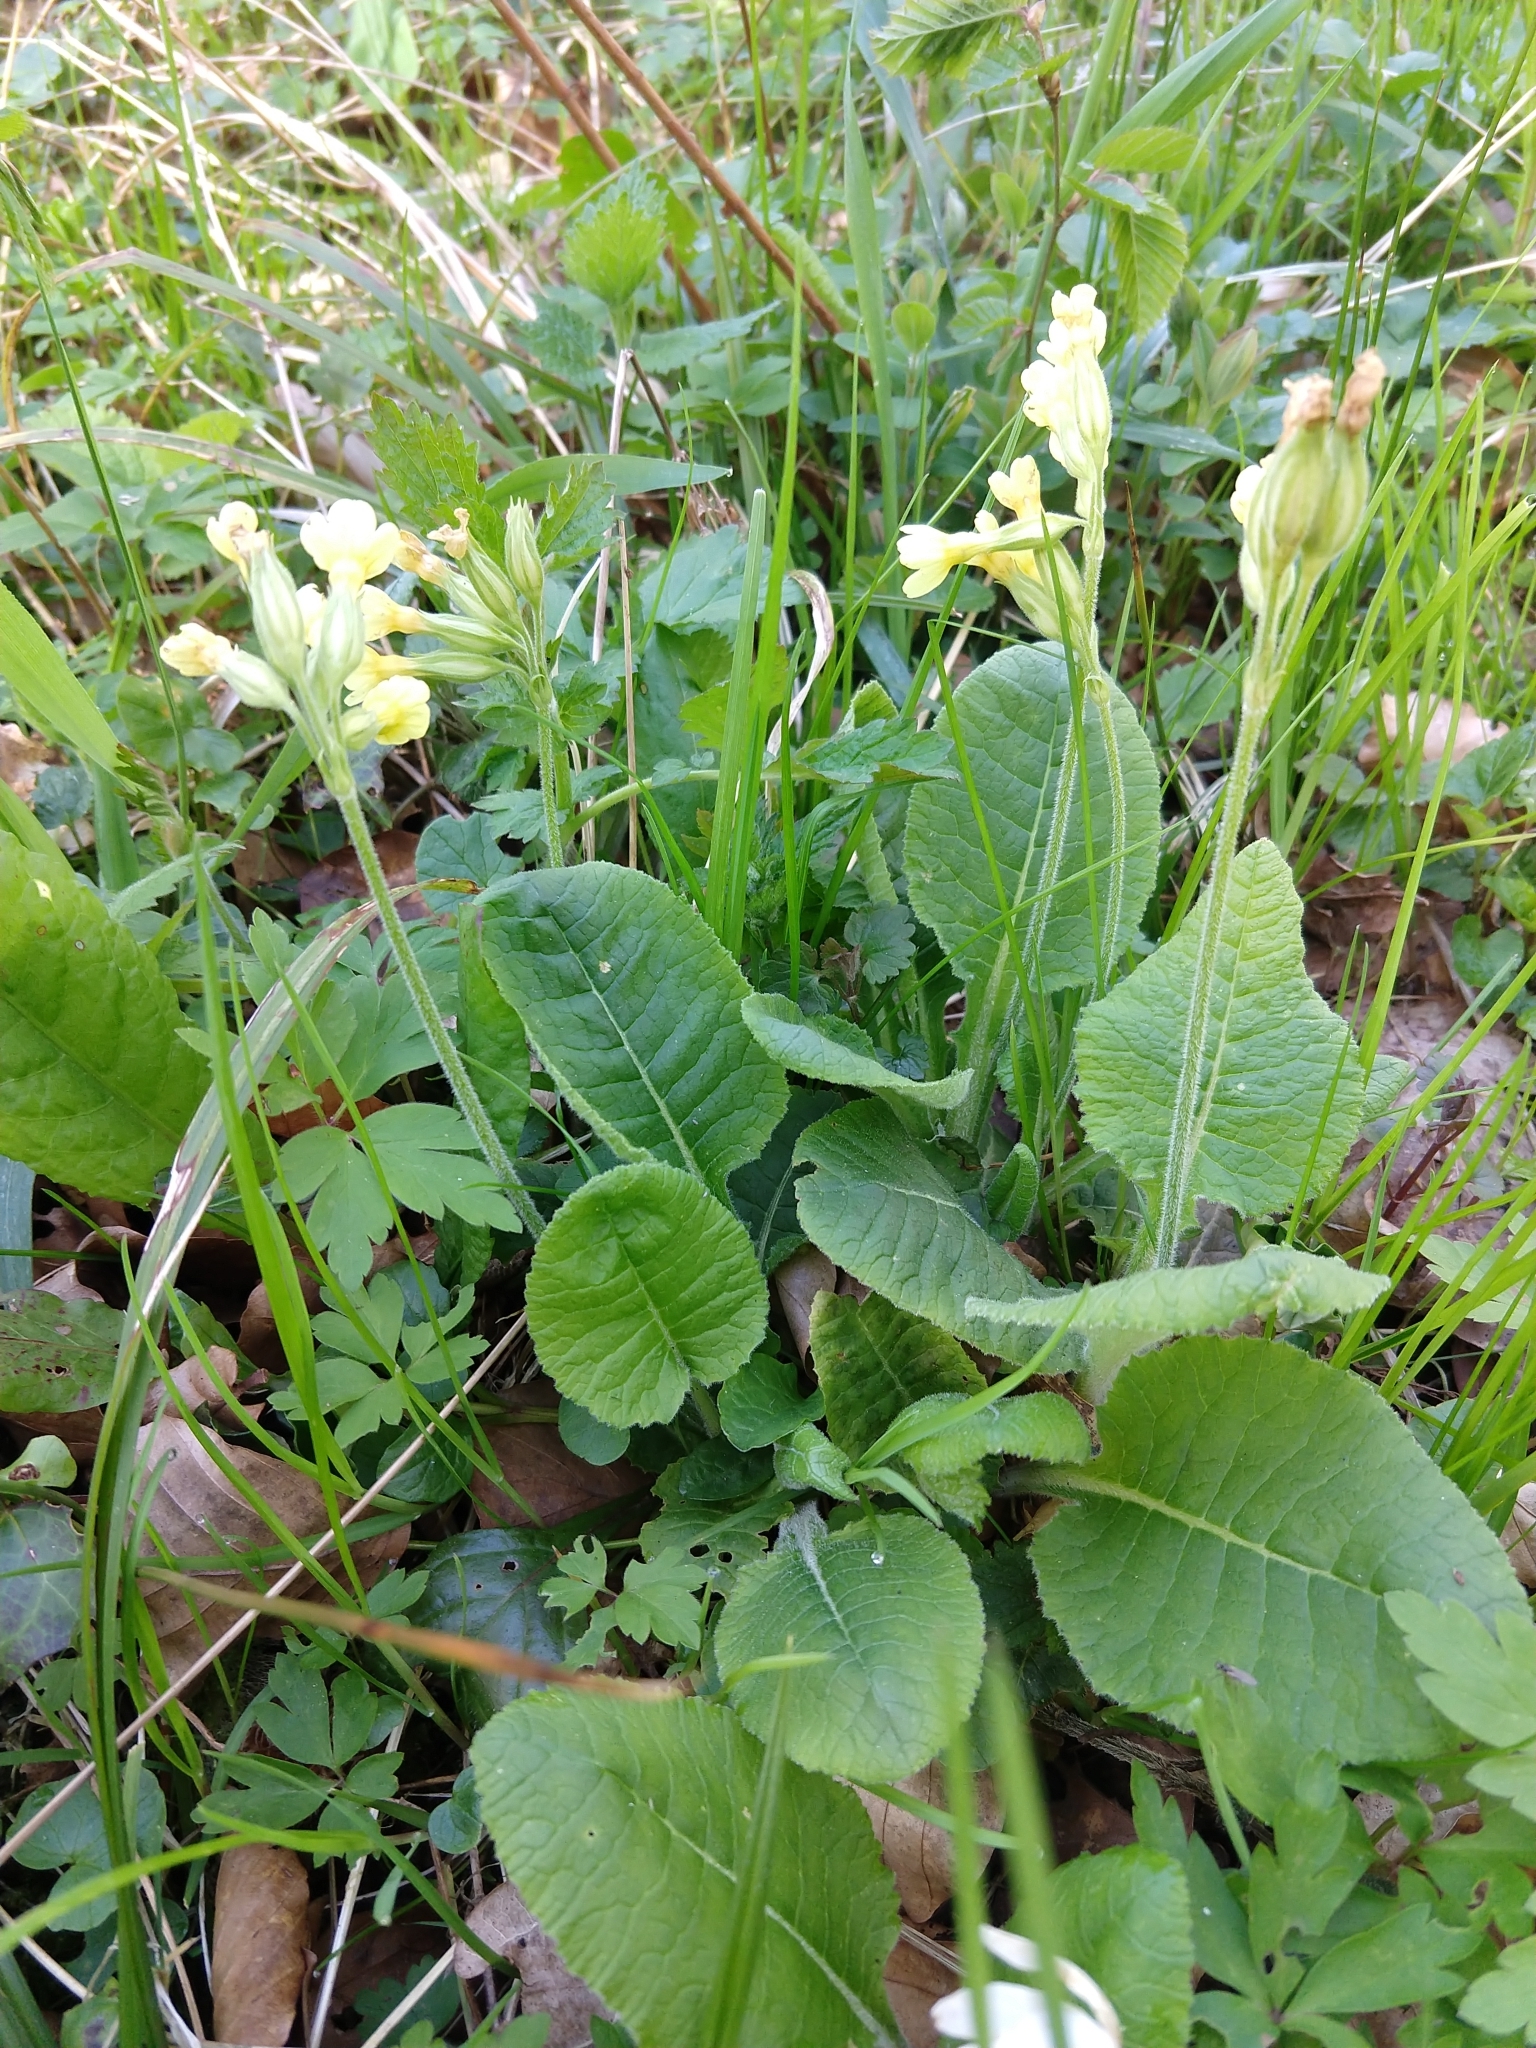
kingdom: Plantae
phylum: Tracheophyta
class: Magnoliopsida
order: Ericales
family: Primulaceae
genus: Primula
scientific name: Primula elatior
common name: Oxlip
